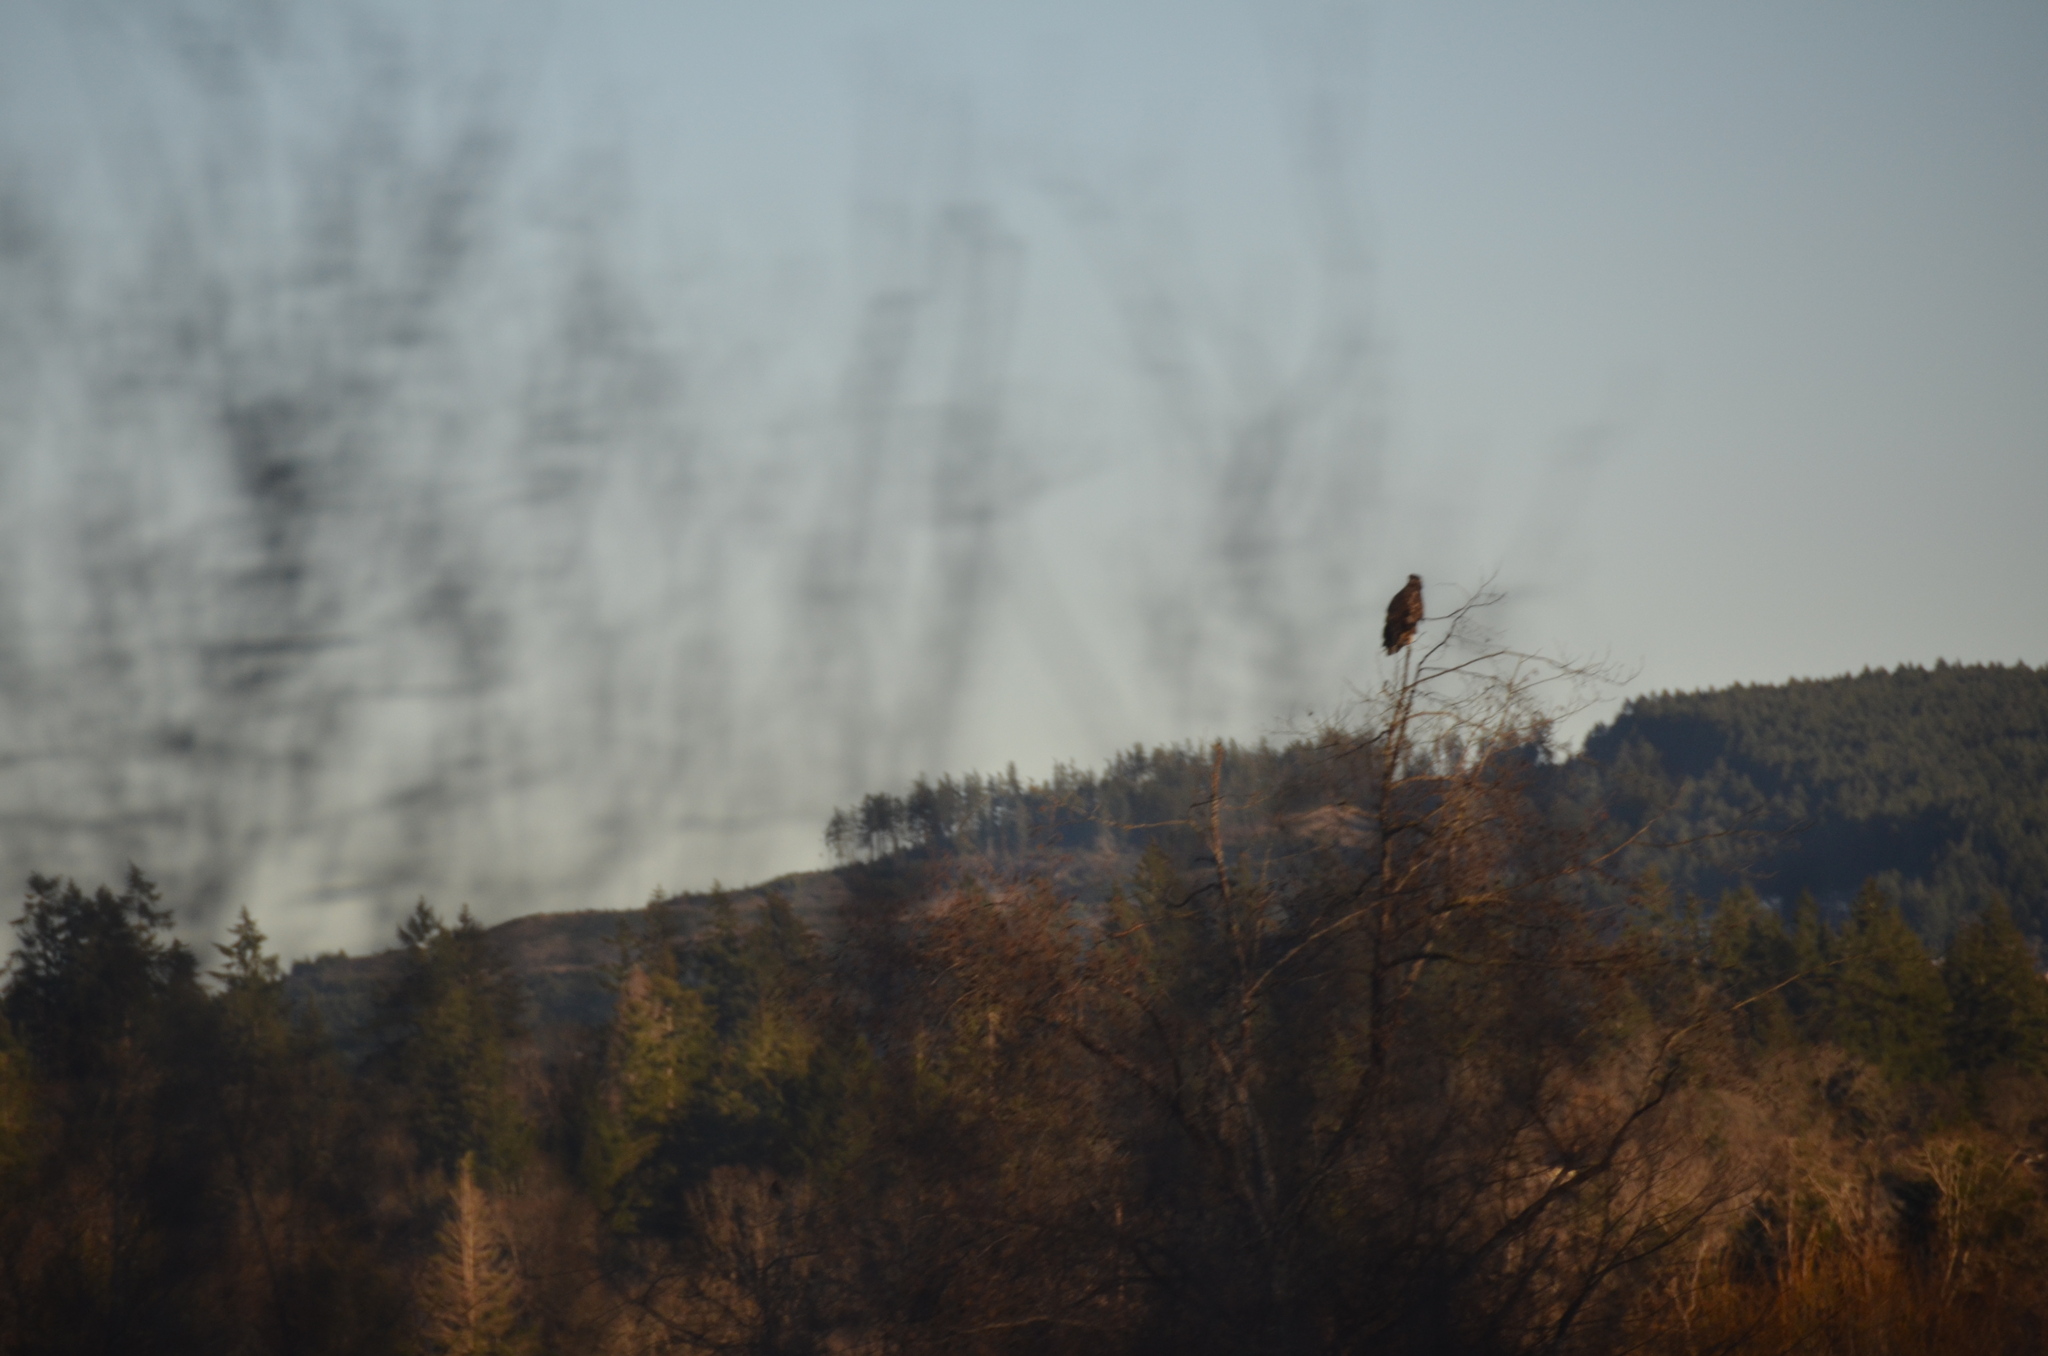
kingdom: Animalia
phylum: Chordata
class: Aves
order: Accipitriformes
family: Accipitridae
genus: Haliaeetus
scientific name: Haliaeetus leucocephalus
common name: Bald eagle
